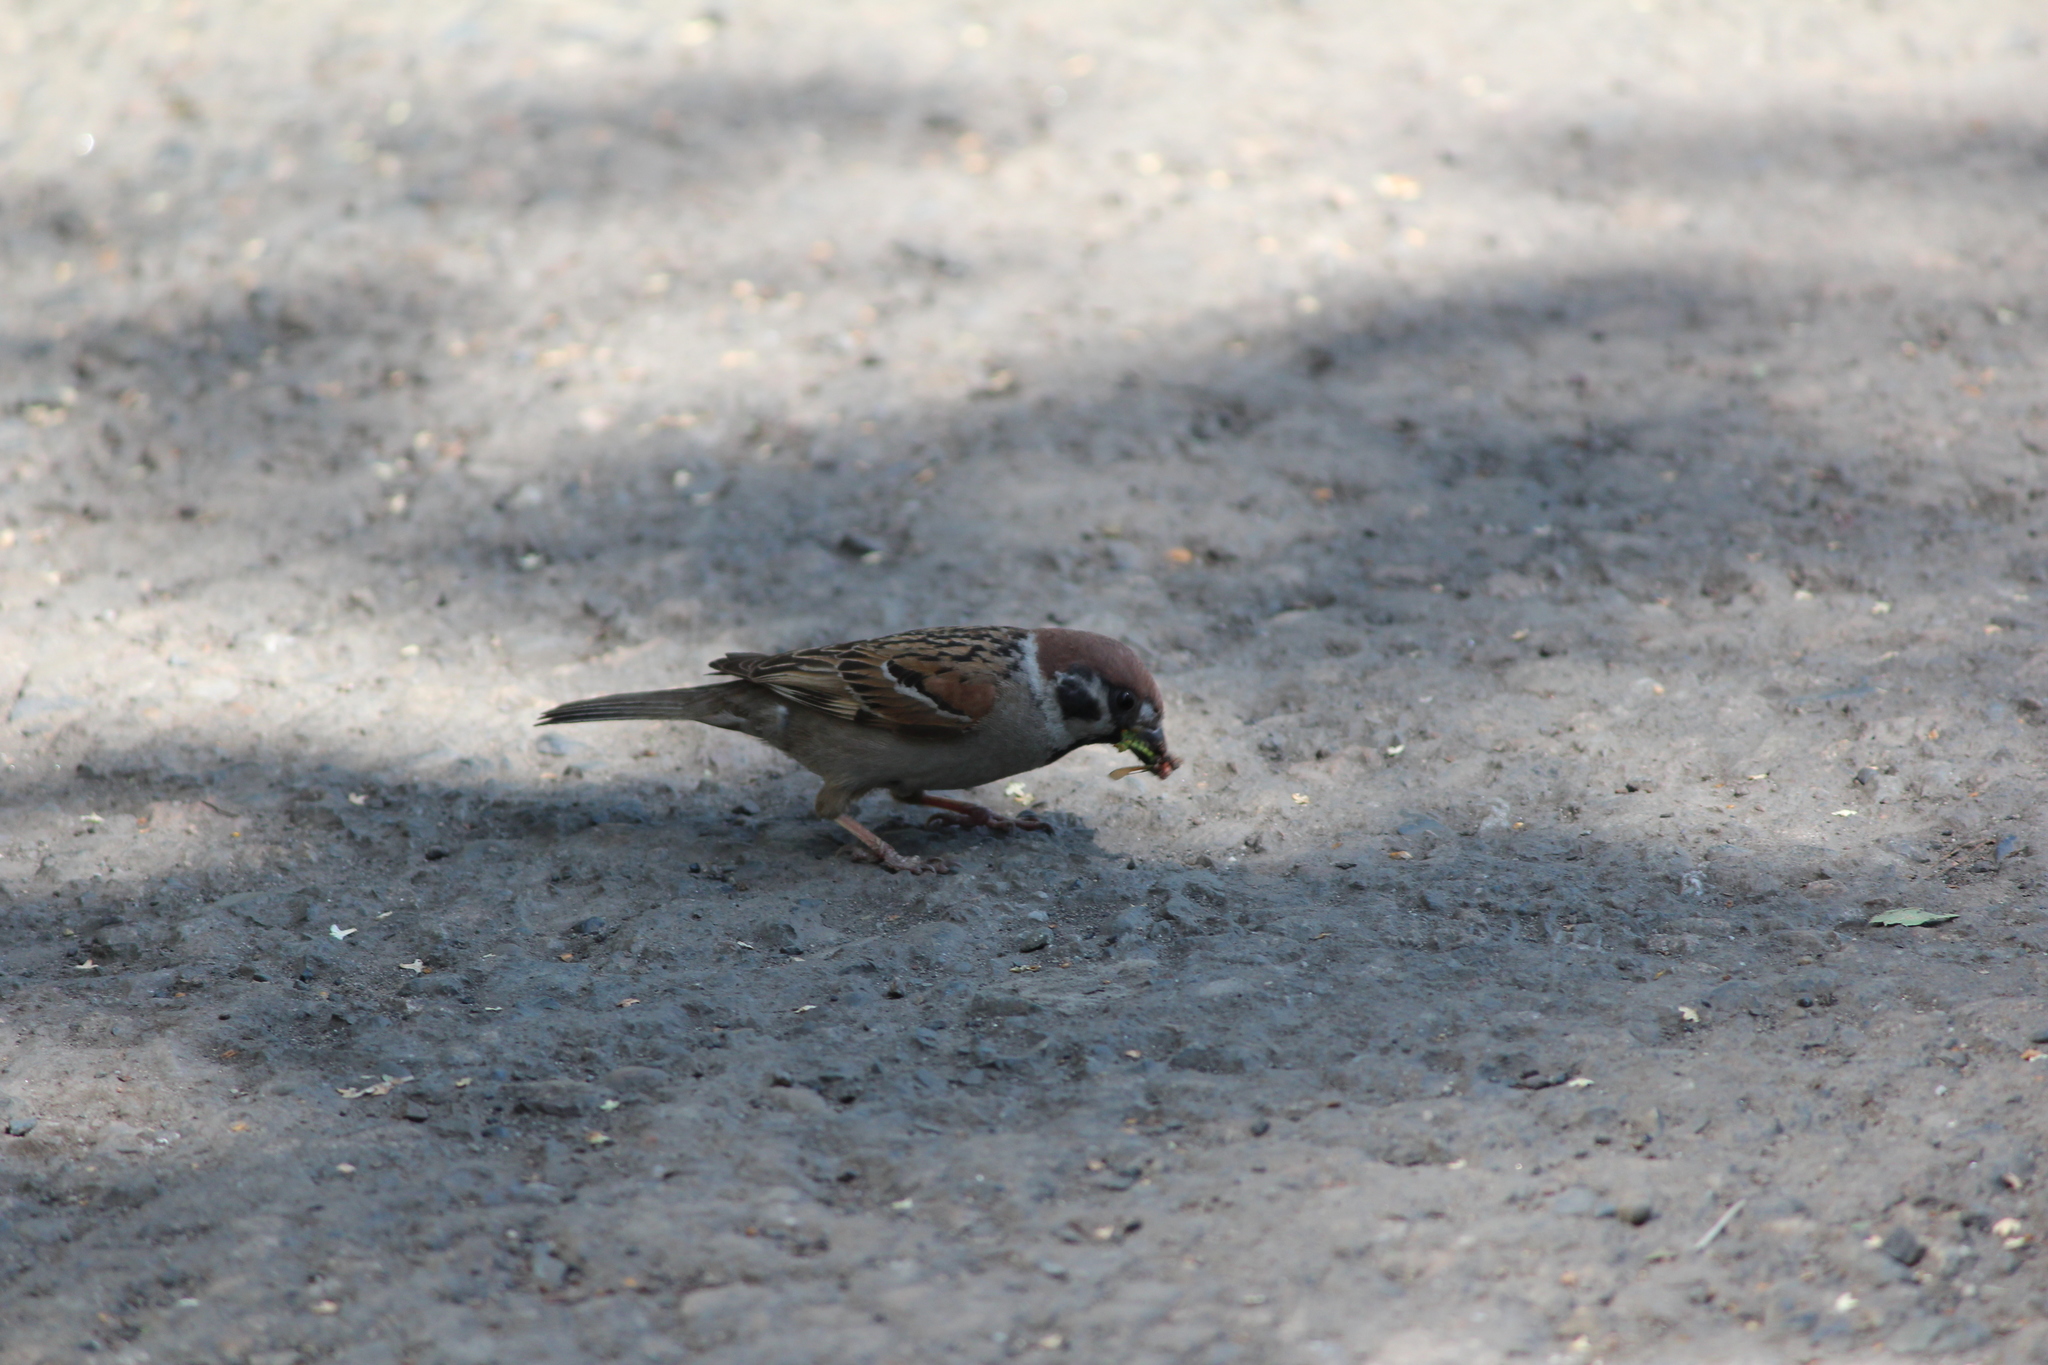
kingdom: Animalia
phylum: Chordata
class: Aves
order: Passeriformes
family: Passeridae
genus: Passer
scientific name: Passer montanus
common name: Eurasian tree sparrow
